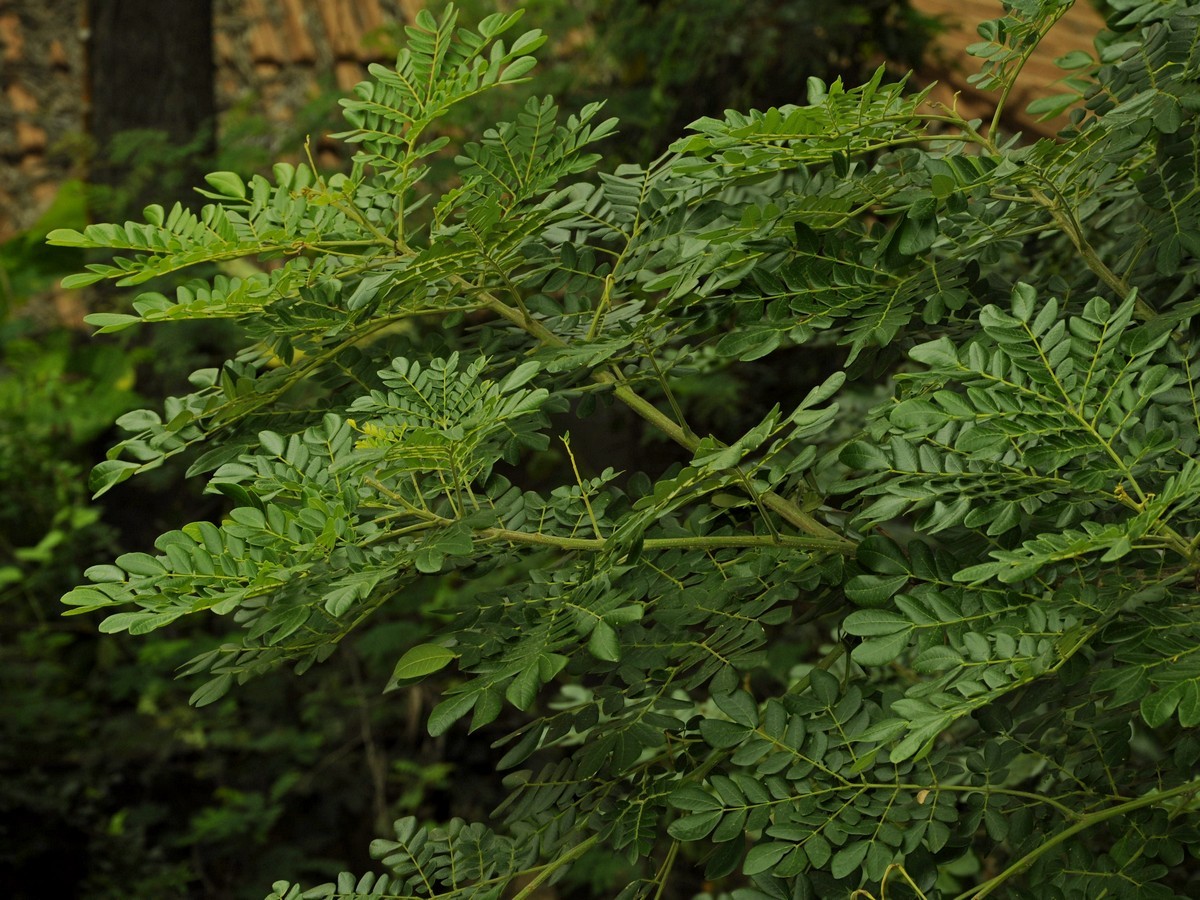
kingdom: Plantae
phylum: Tracheophyta
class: Magnoliopsida
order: Fabales
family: Fabaceae
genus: Samanea
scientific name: Samanea saman
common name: Raintree
